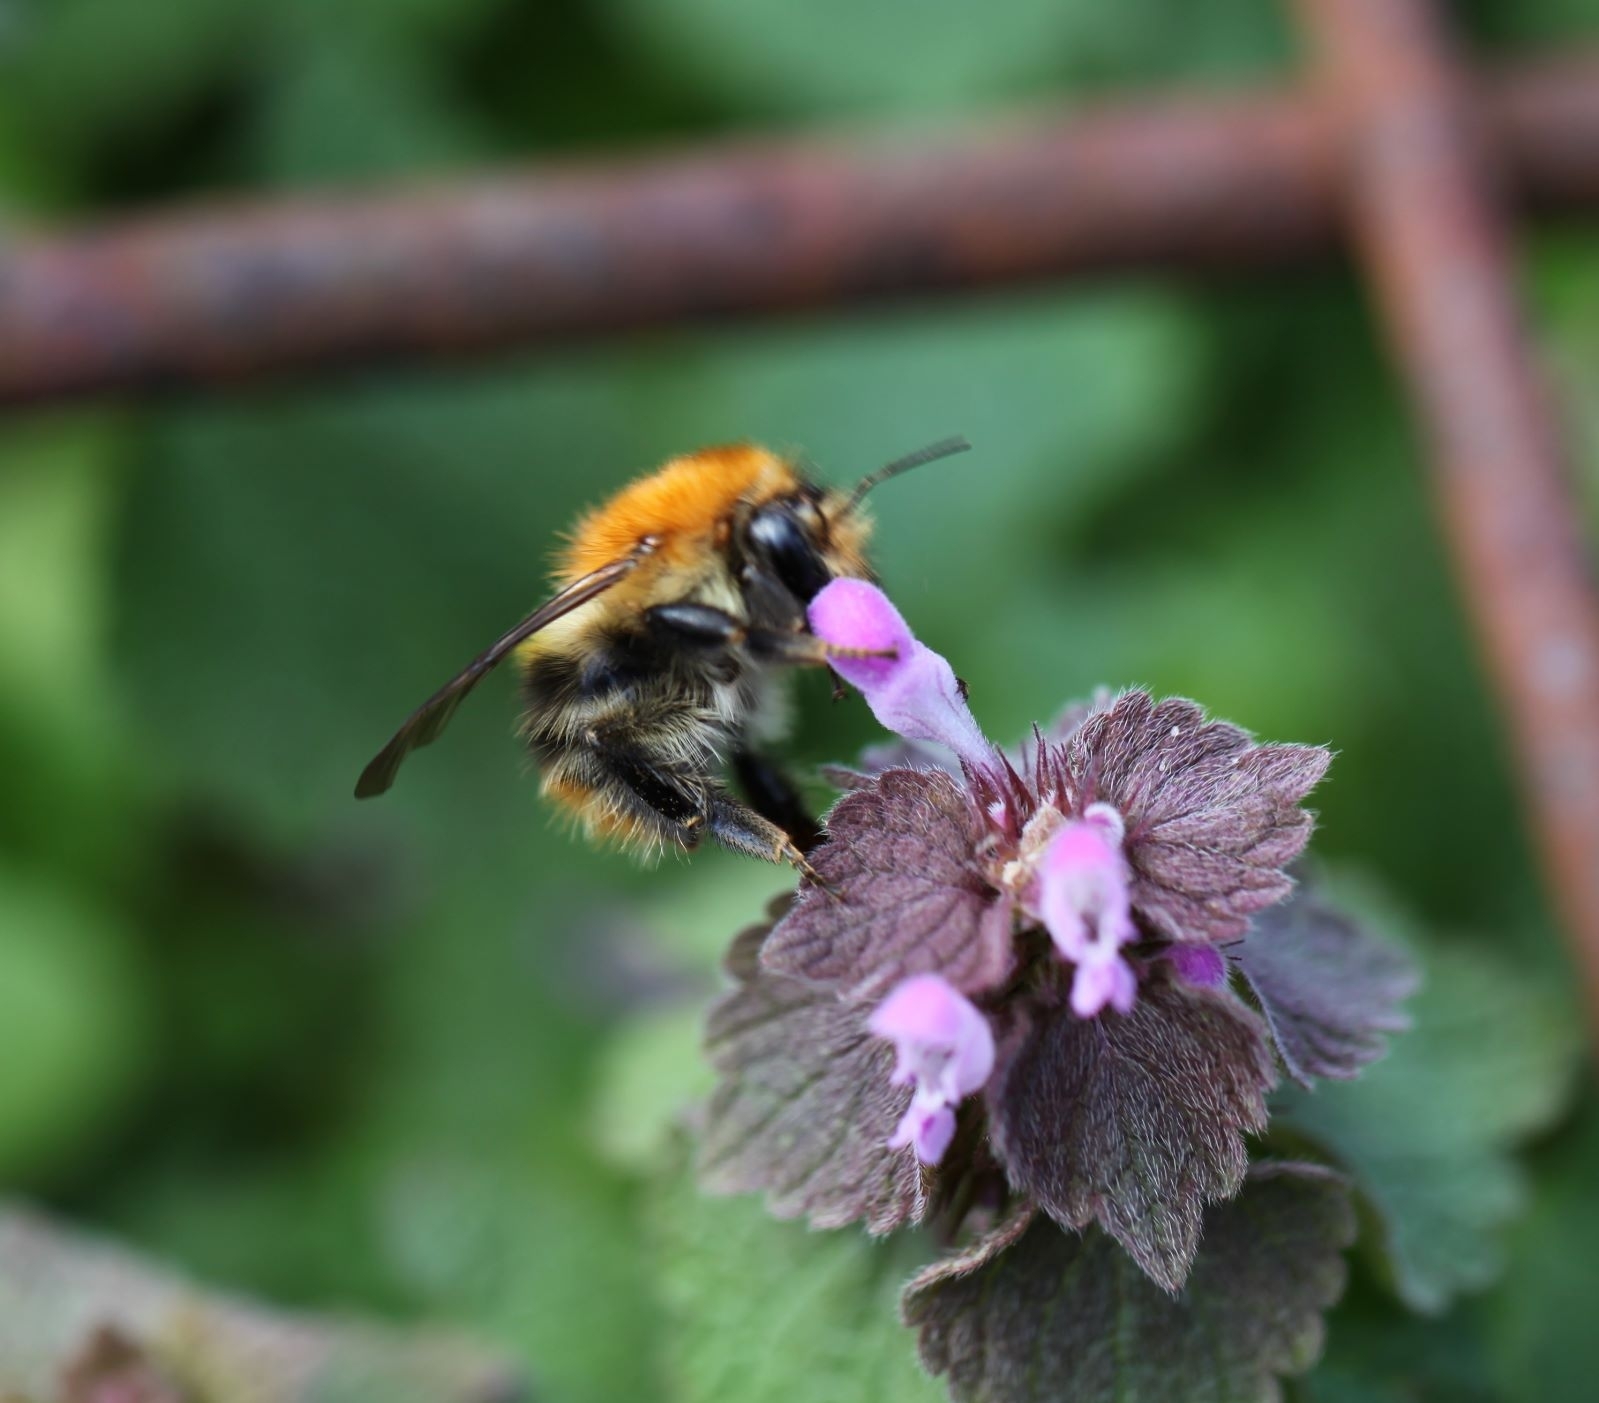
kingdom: Animalia
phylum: Arthropoda
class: Insecta
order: Hymenoptera
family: Apidae
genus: Bombus
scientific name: Bombus pascuorum
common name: Common carder bee
